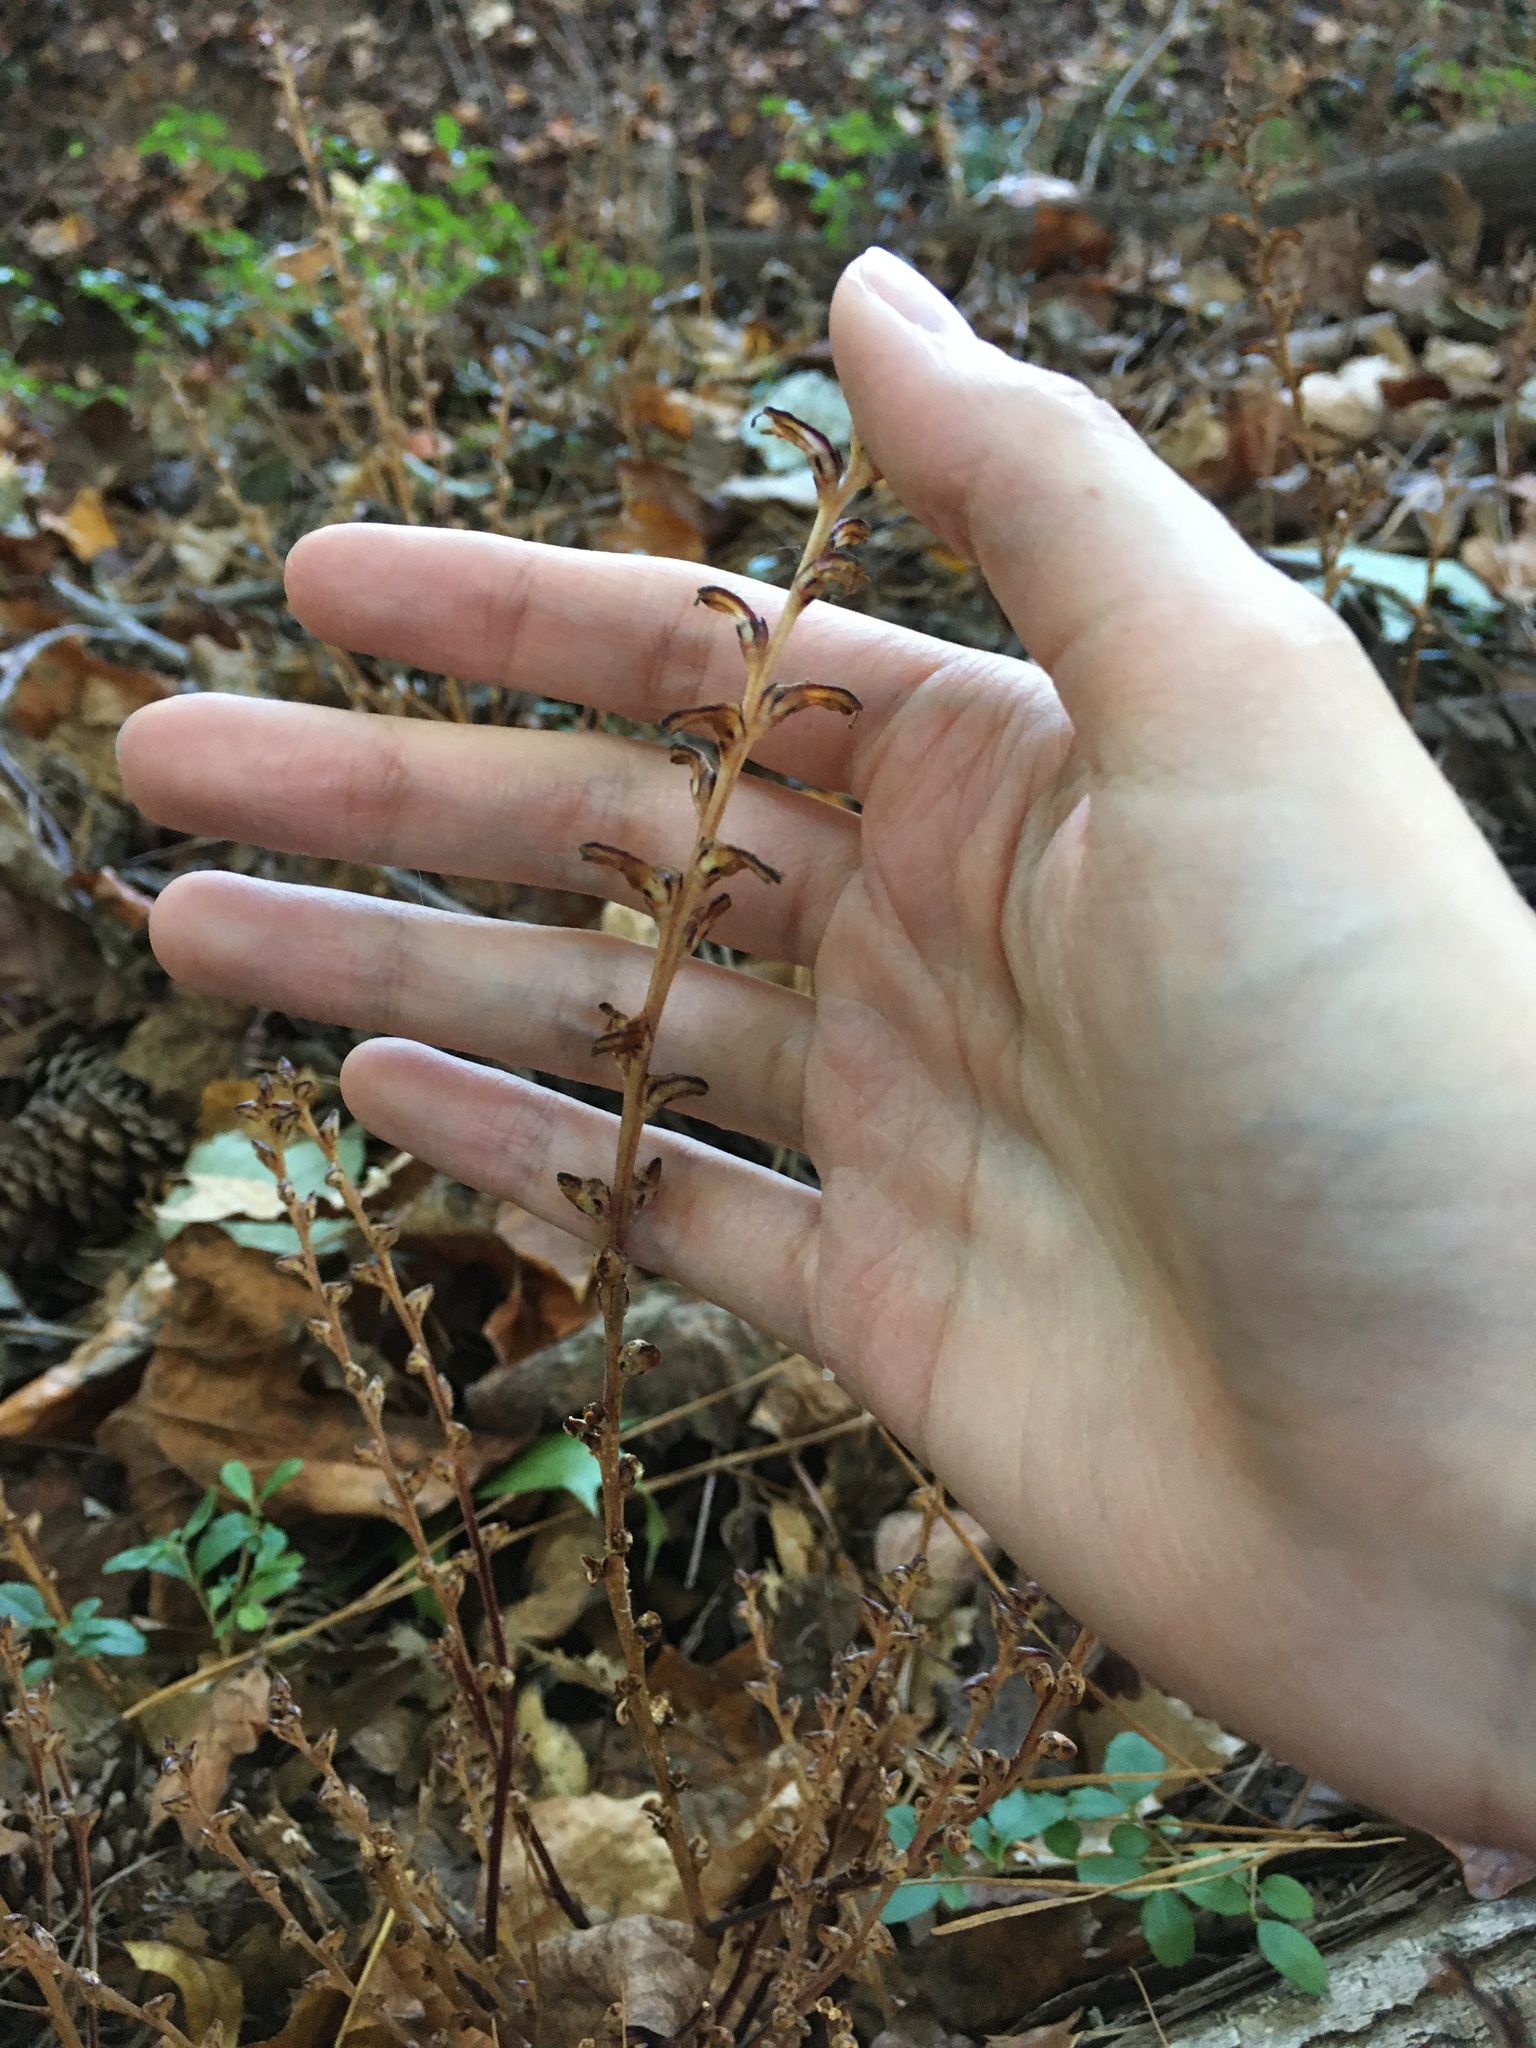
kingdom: Plantae
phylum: Tracheophyta
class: Magnoliopsida
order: Lamiales
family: Orobanchaceae
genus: Epifagus
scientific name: Epifagus virginiana
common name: Beechdrops
